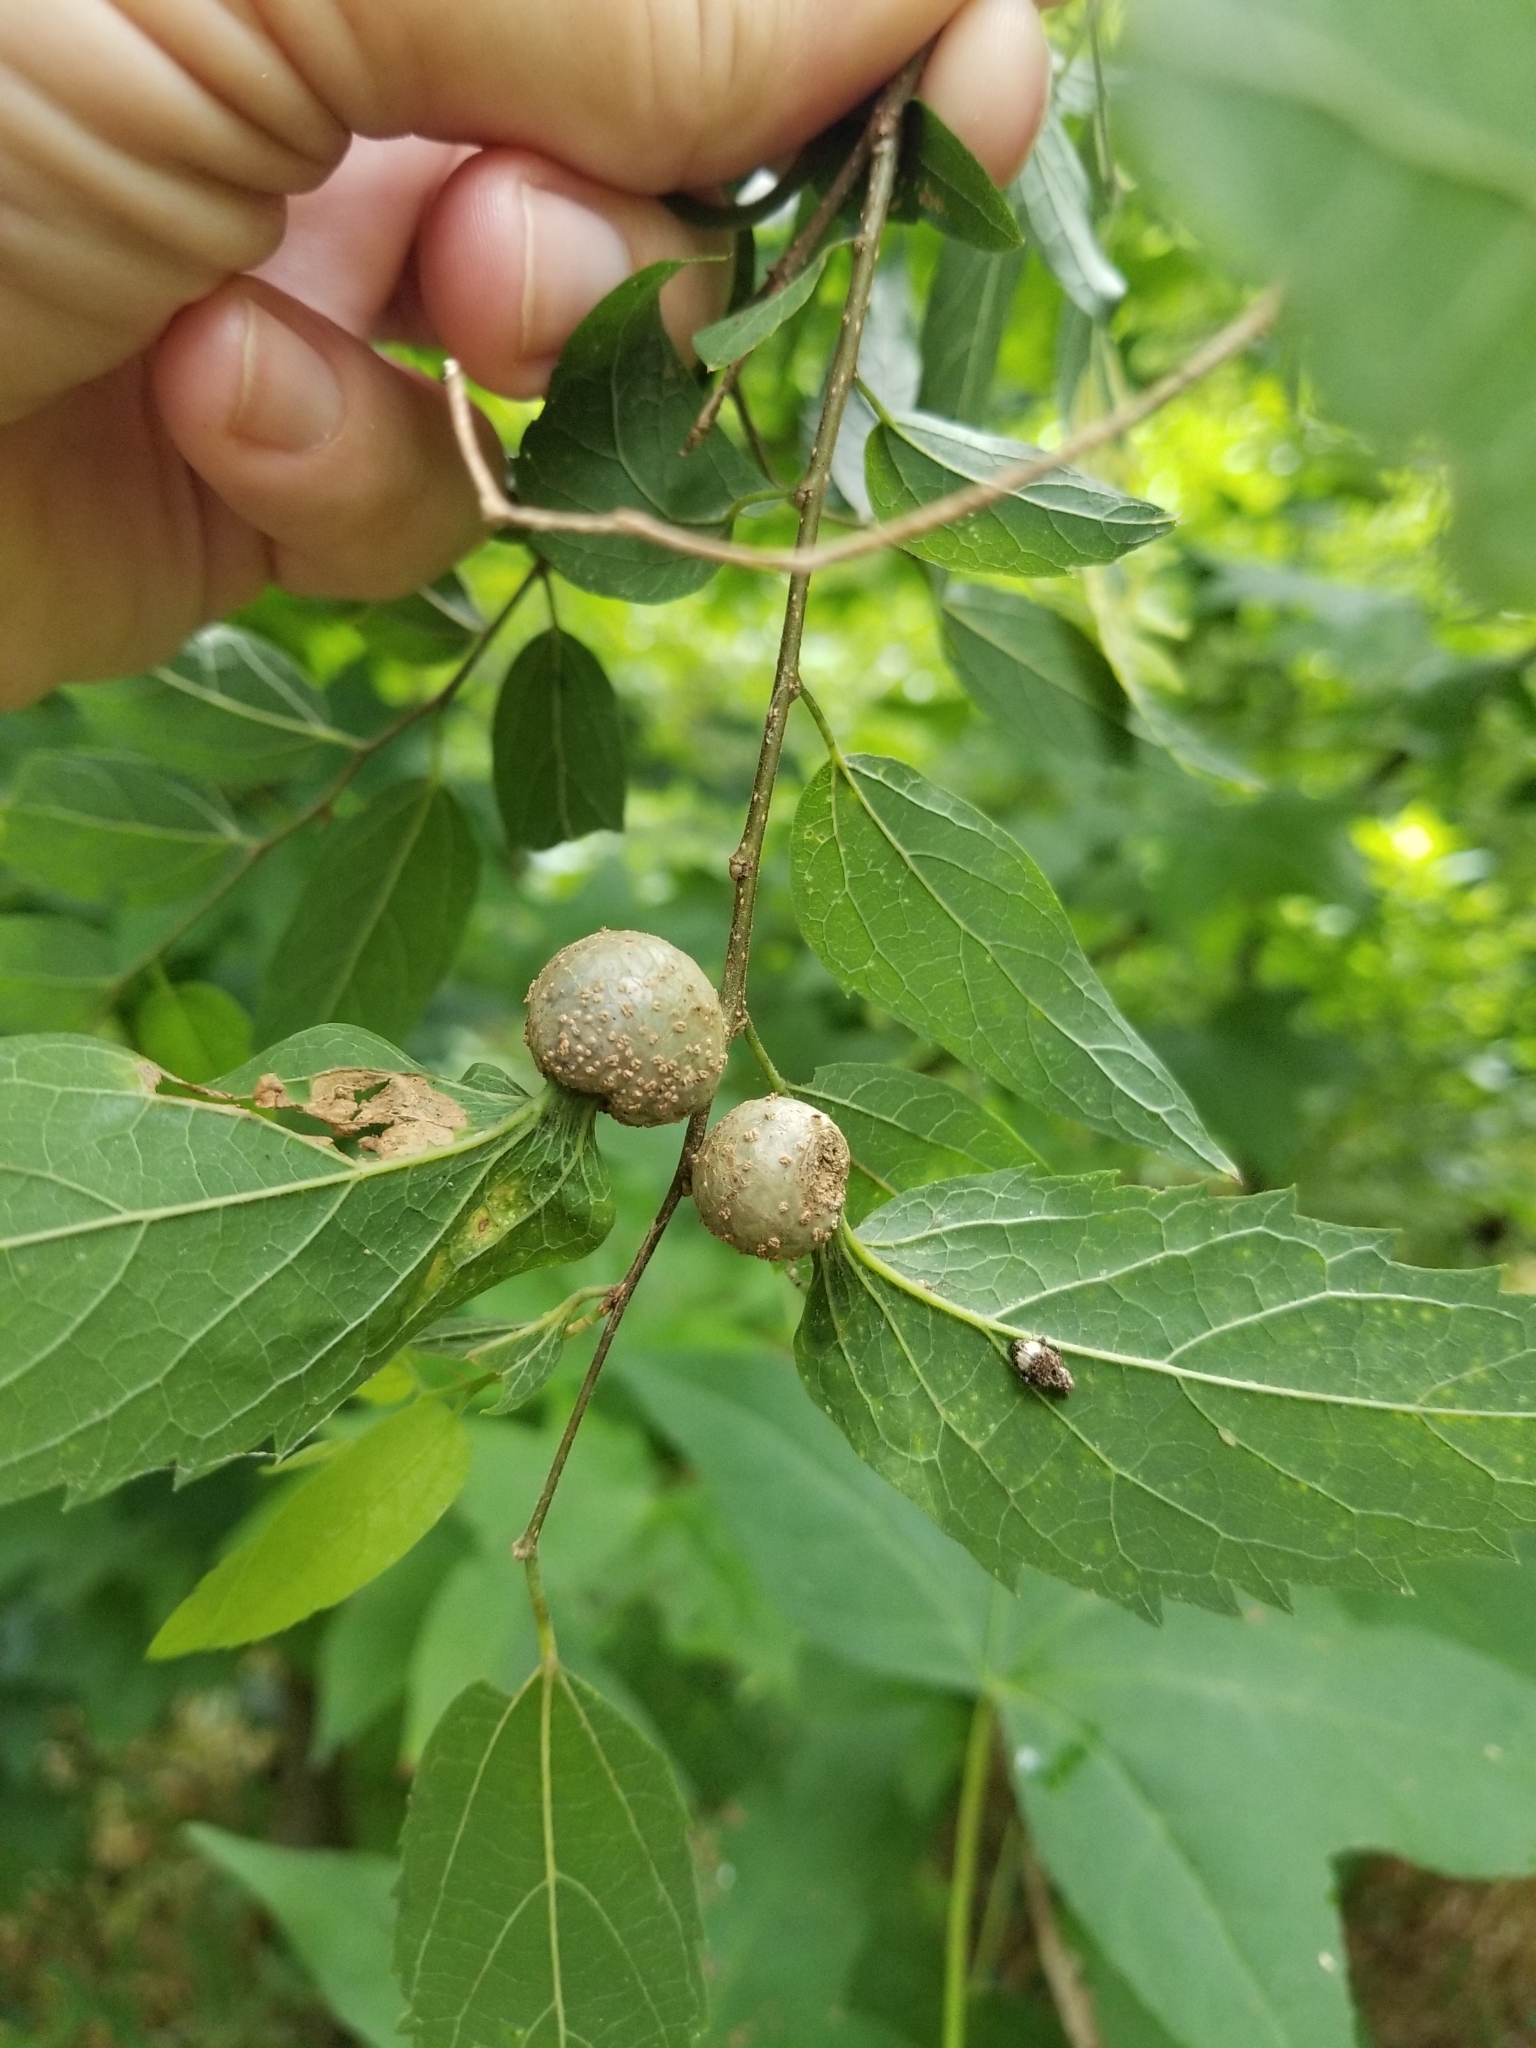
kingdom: Animalia
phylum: Arthropoda
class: Insecta
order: Hemiptera
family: Aphalaridae
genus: Pachypsylla
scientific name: Pachypsylla venusta
